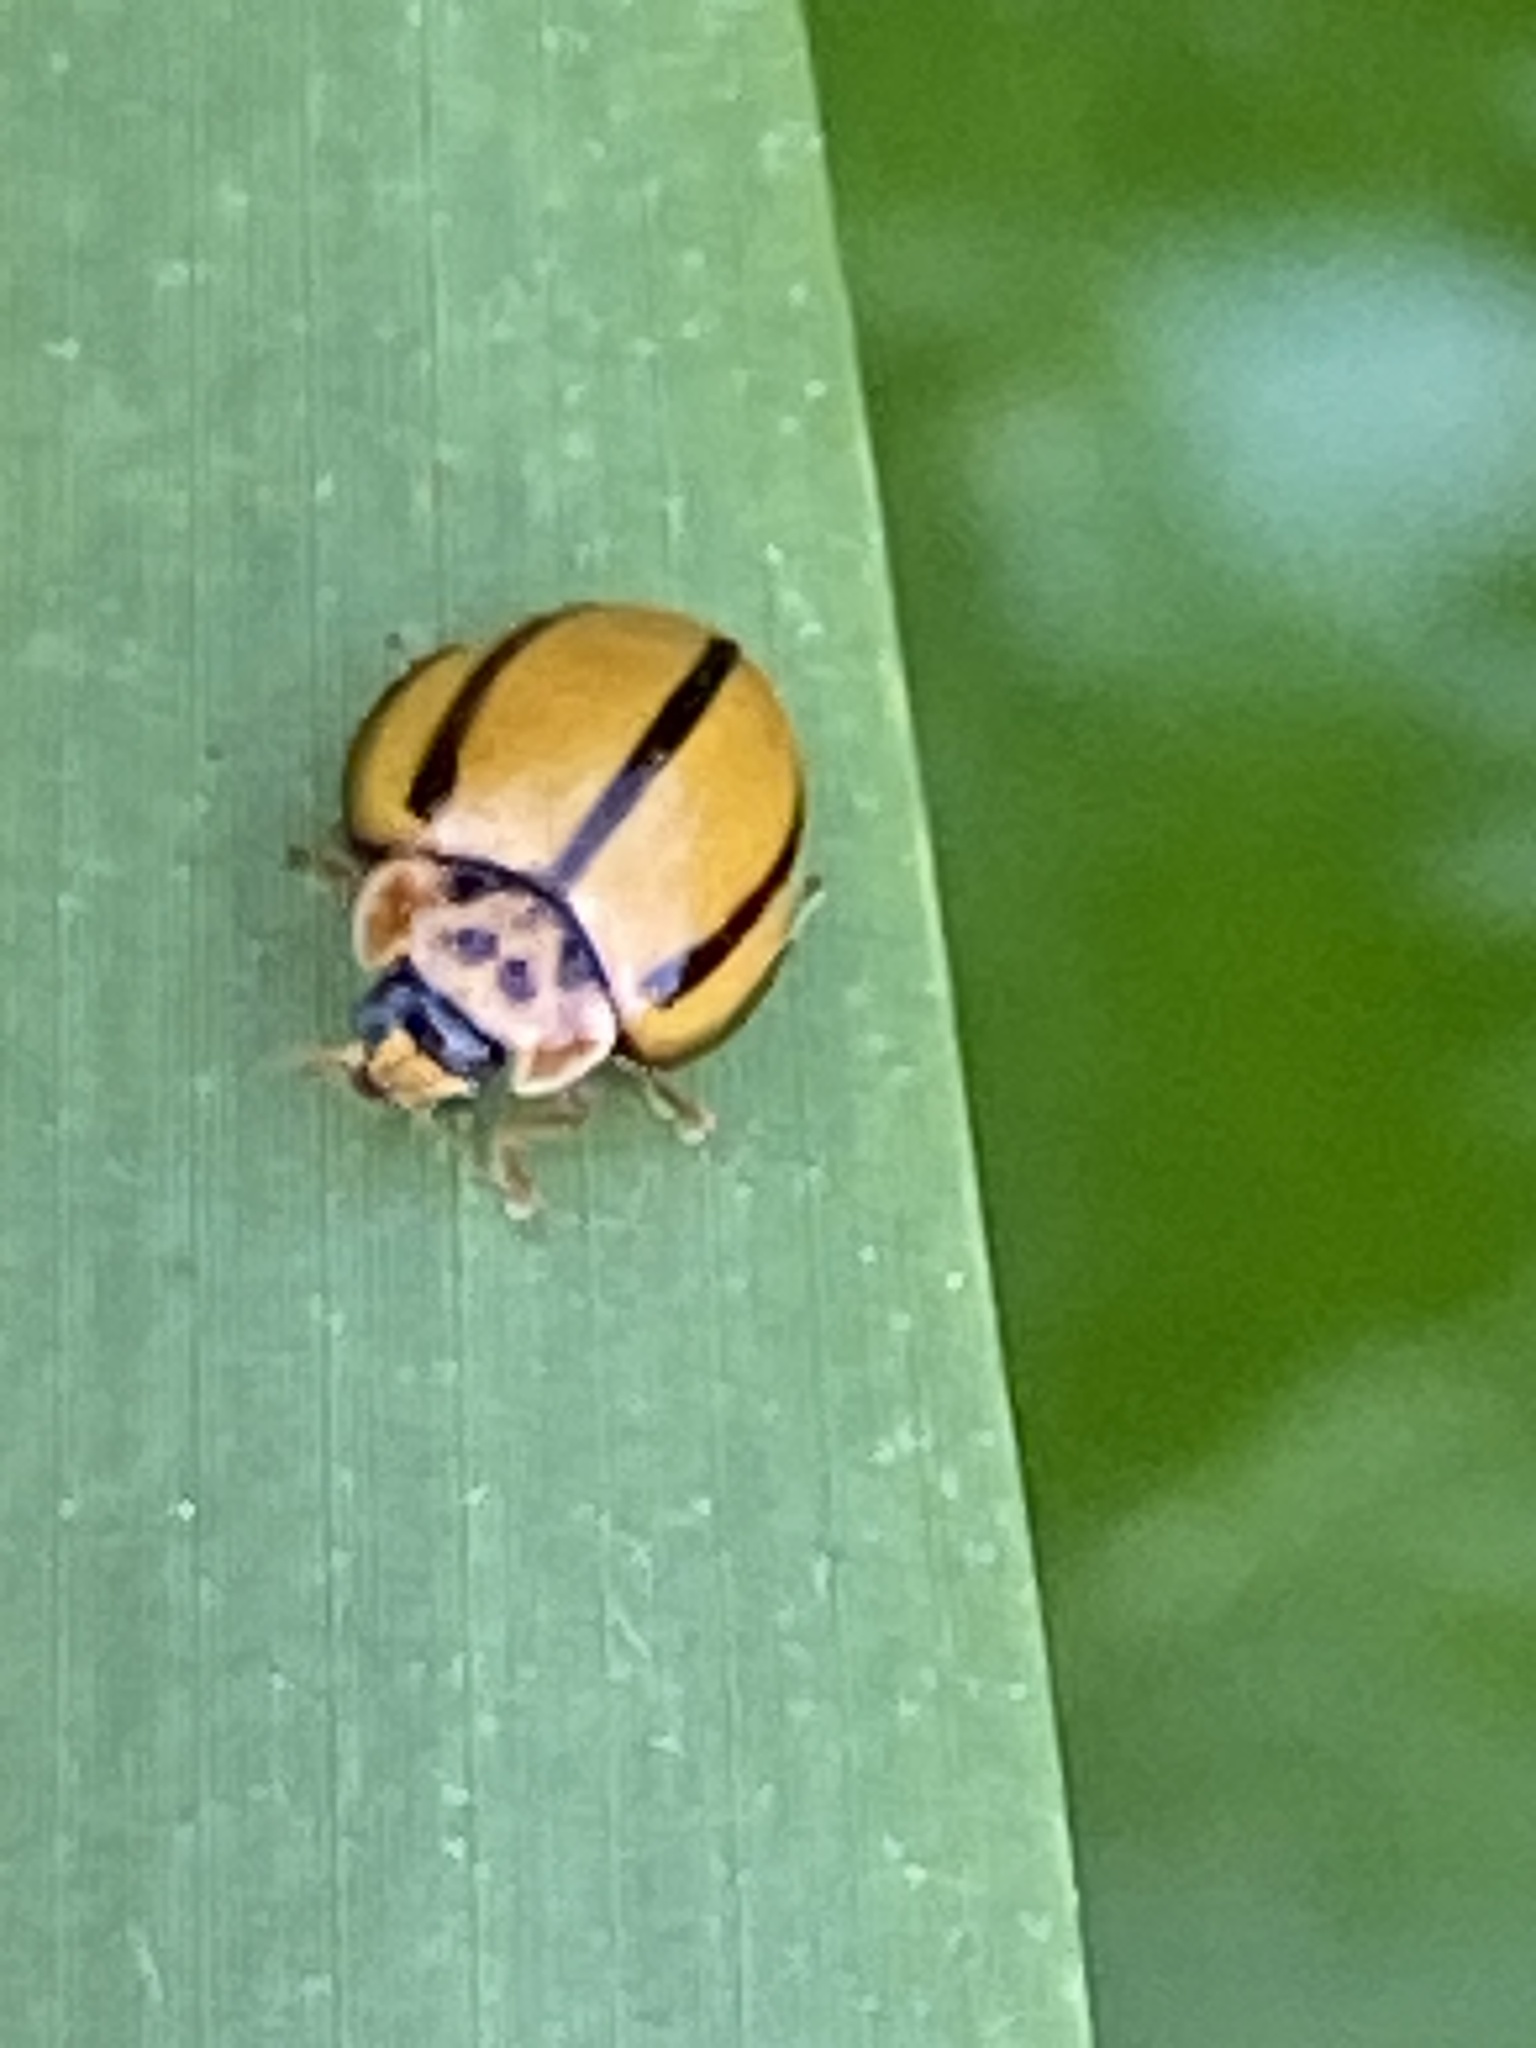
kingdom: Animalia
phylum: Arthropoda
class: Insecta
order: Coleoptera
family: Coccinellidae
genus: Micraspis
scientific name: Micraspis lineola
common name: Lady beetle
